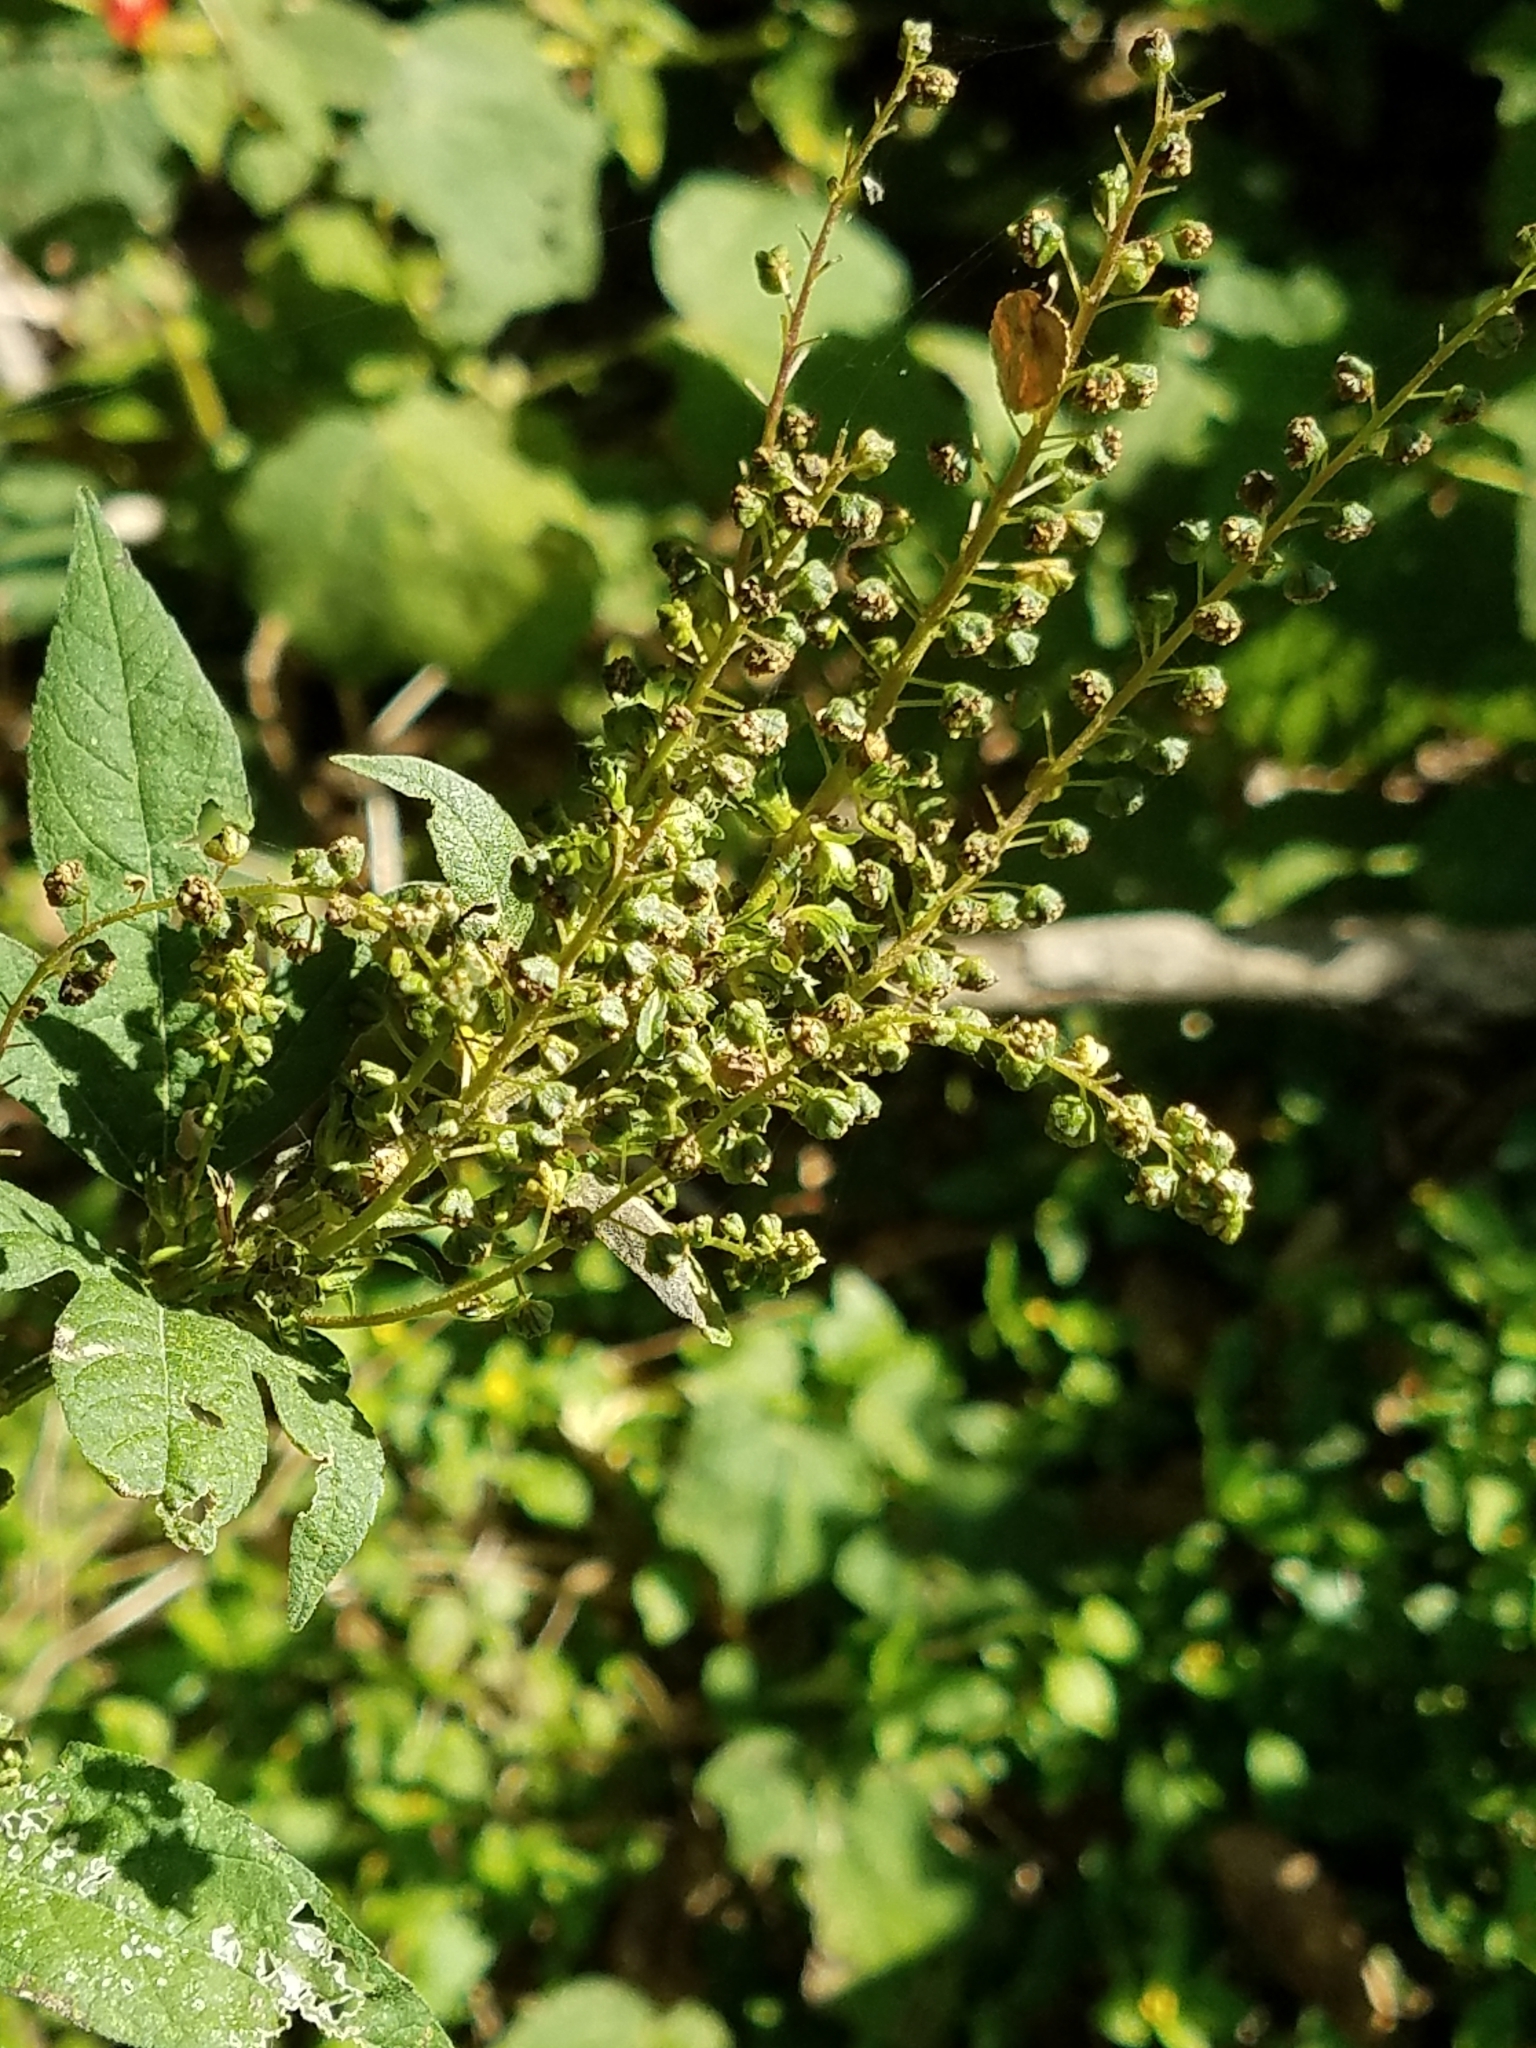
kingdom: Plantae
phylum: Tracheophyta
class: Magnoliopsida
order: Asterales
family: Asteraceae
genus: Ambrosia
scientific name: Ambrosia trifida
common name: Giant ragweed
